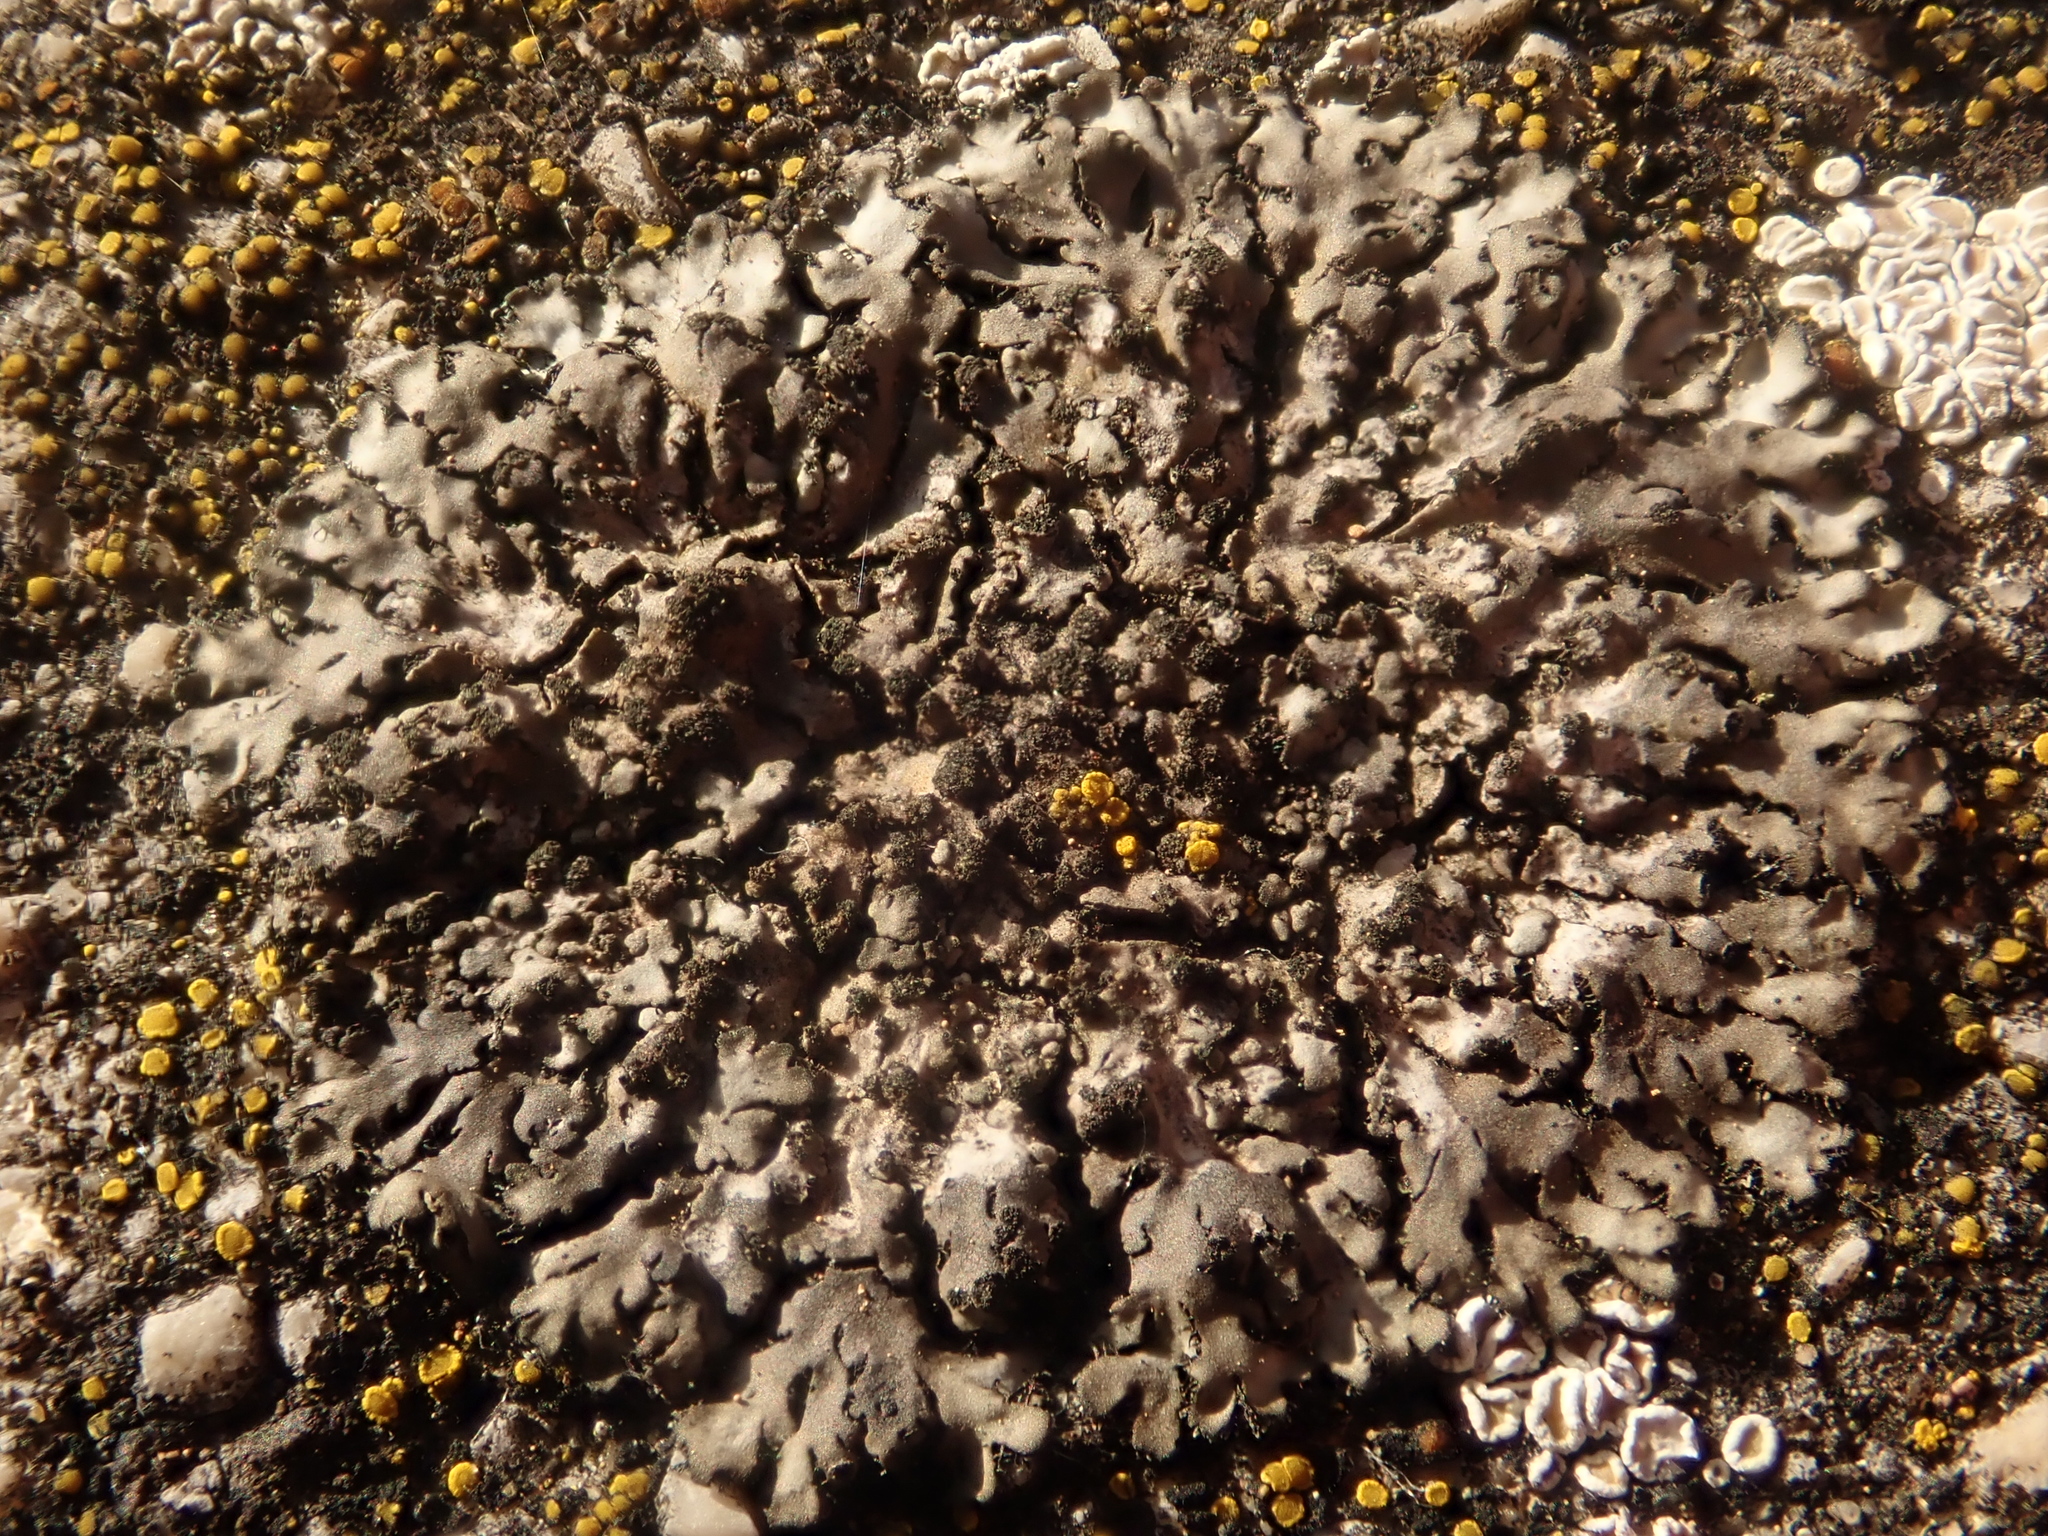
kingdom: Fungi
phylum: Ascomycota
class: Lecanoromycetes
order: Caliciales
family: Physciaceae
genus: Phaeophyscia
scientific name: Phaeophyscia orbicularis
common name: Mealy shadow lichen
